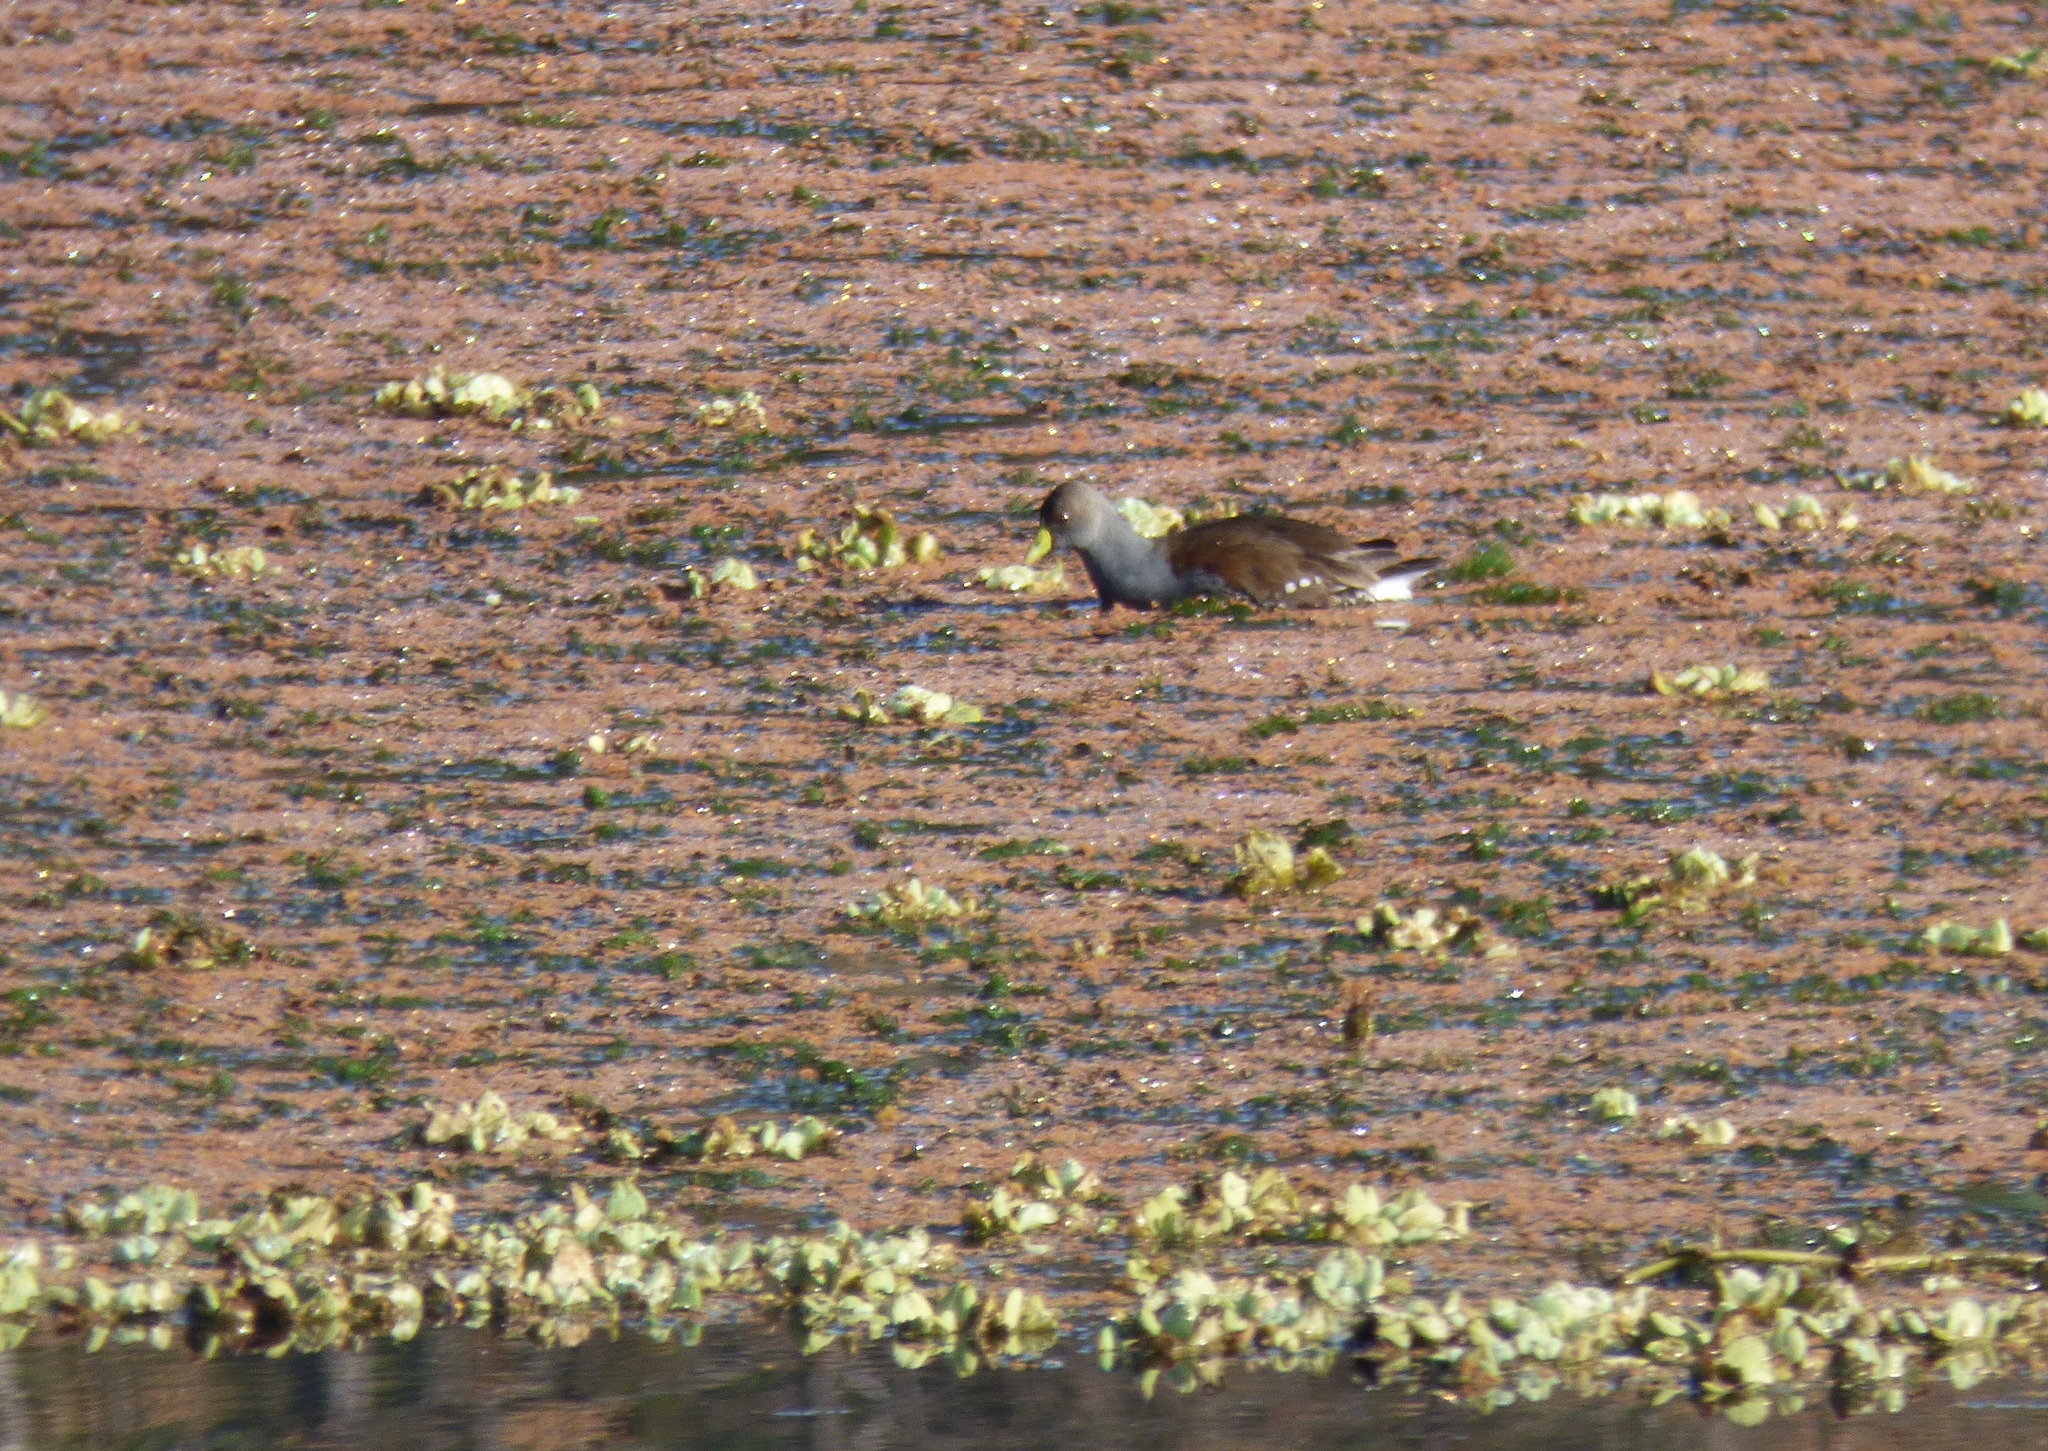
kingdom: Animalia
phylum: Chordata
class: Aves
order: Gruiformes
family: Rallidae
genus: Gallinula
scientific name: Gallinula melanops
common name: Spot-flanked gallinule
